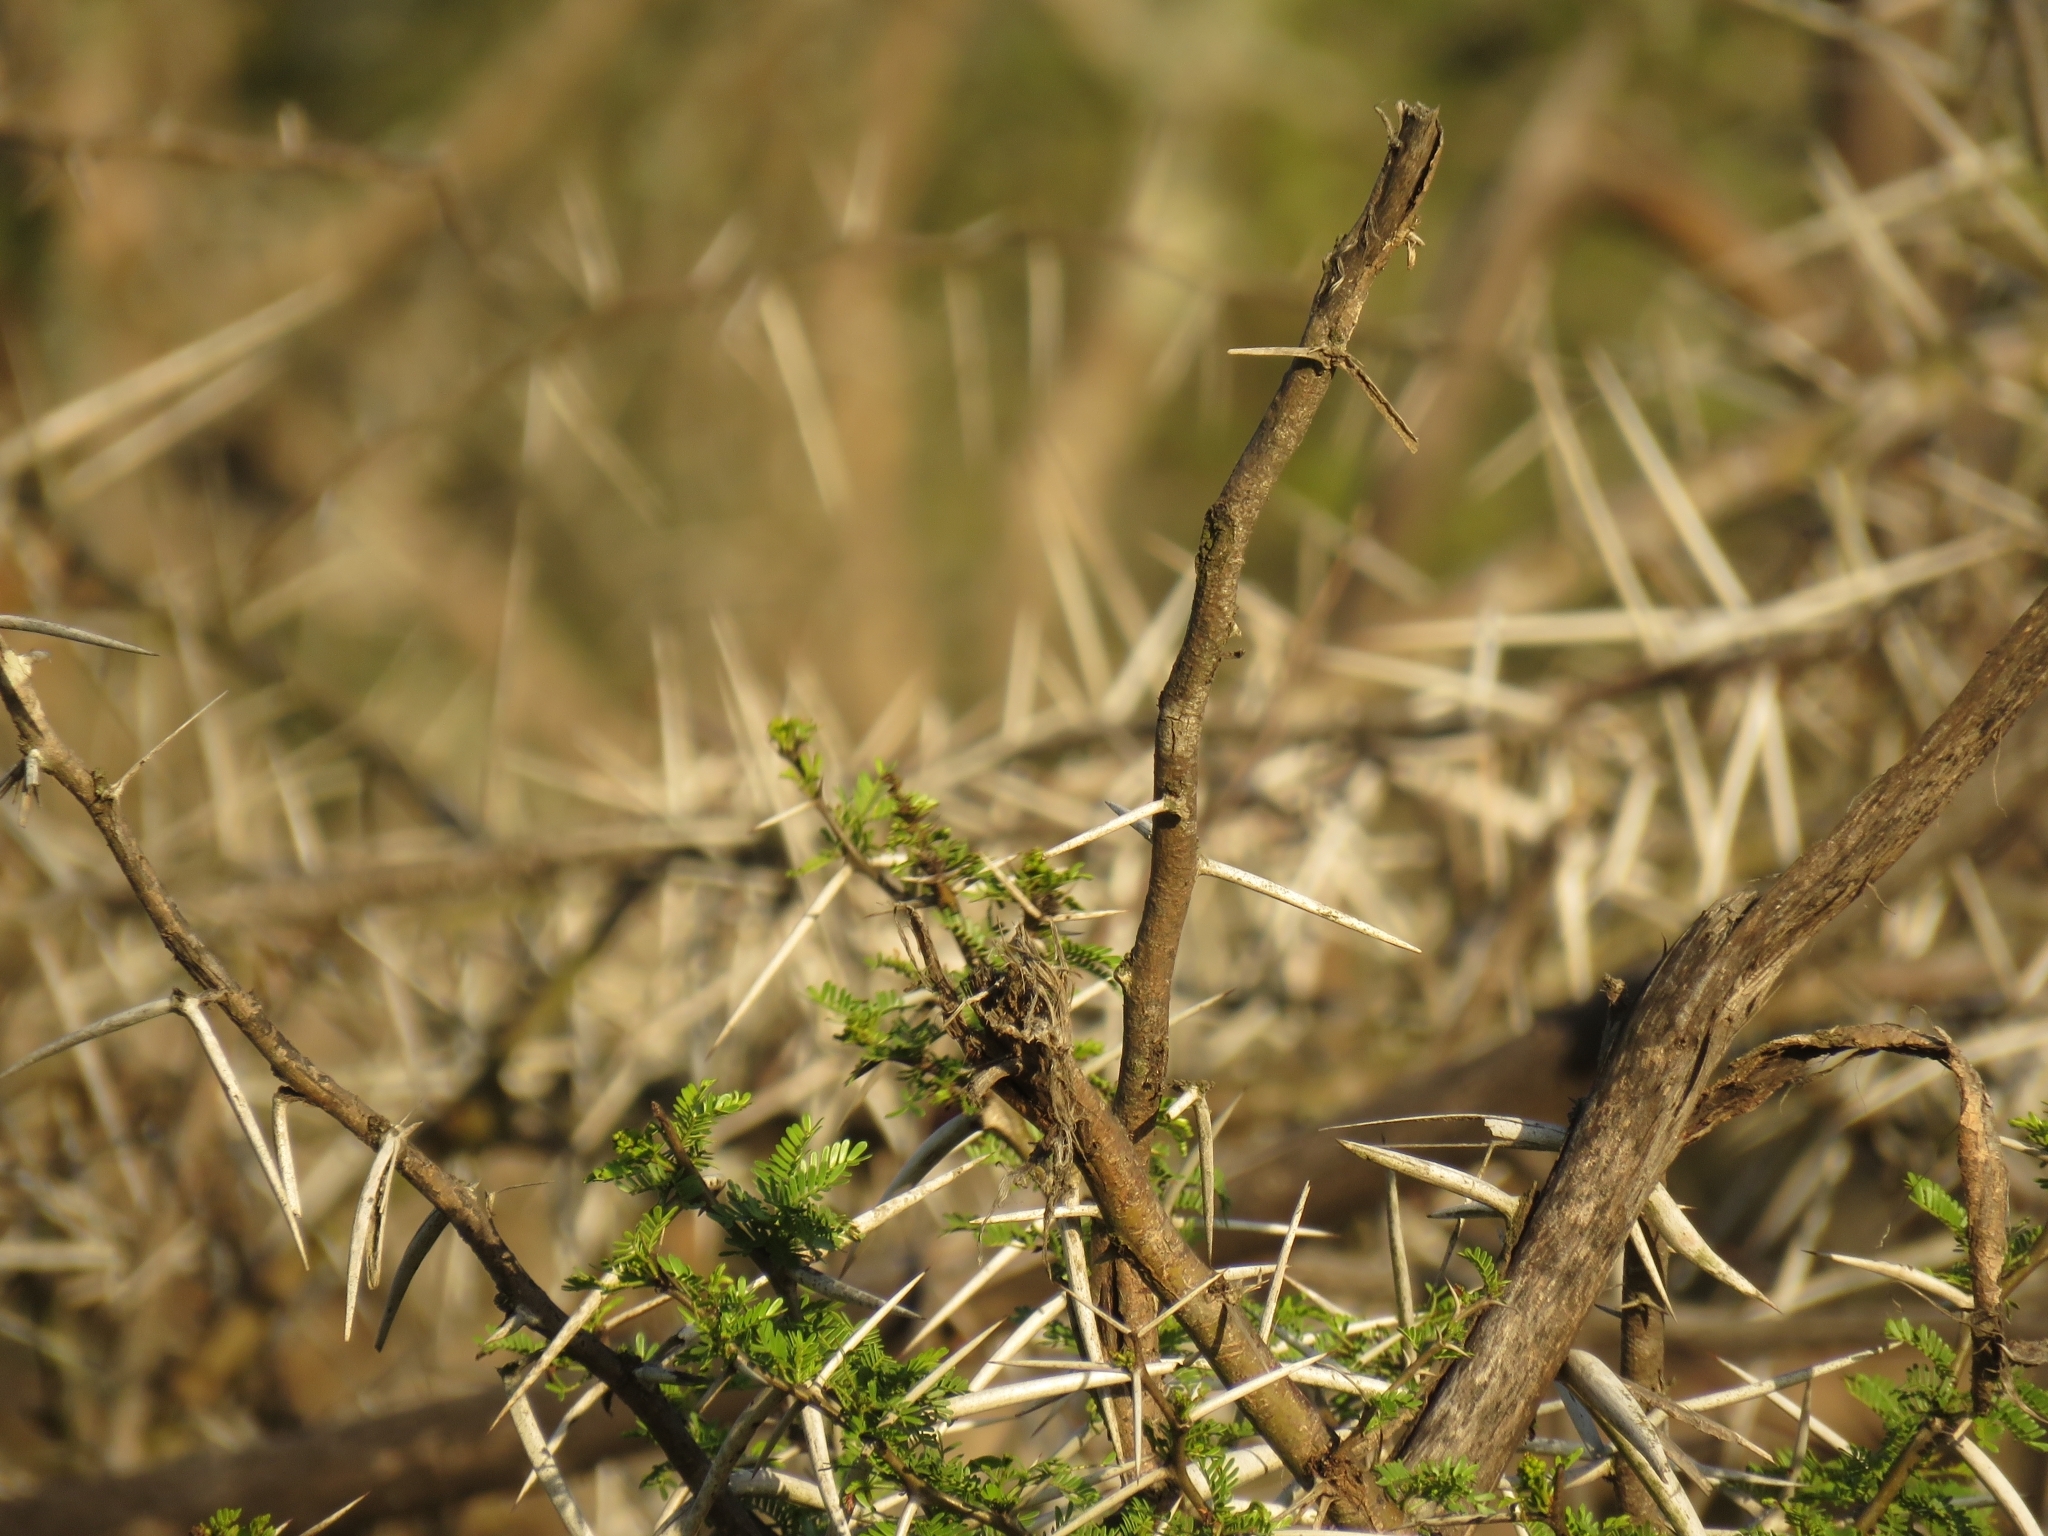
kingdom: Plantae
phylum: Tracheophyta
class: Magnoliopsida
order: Fabales
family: Fabaceae
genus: Vachellia
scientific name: Vachellia karroo
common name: Sweet thorn
